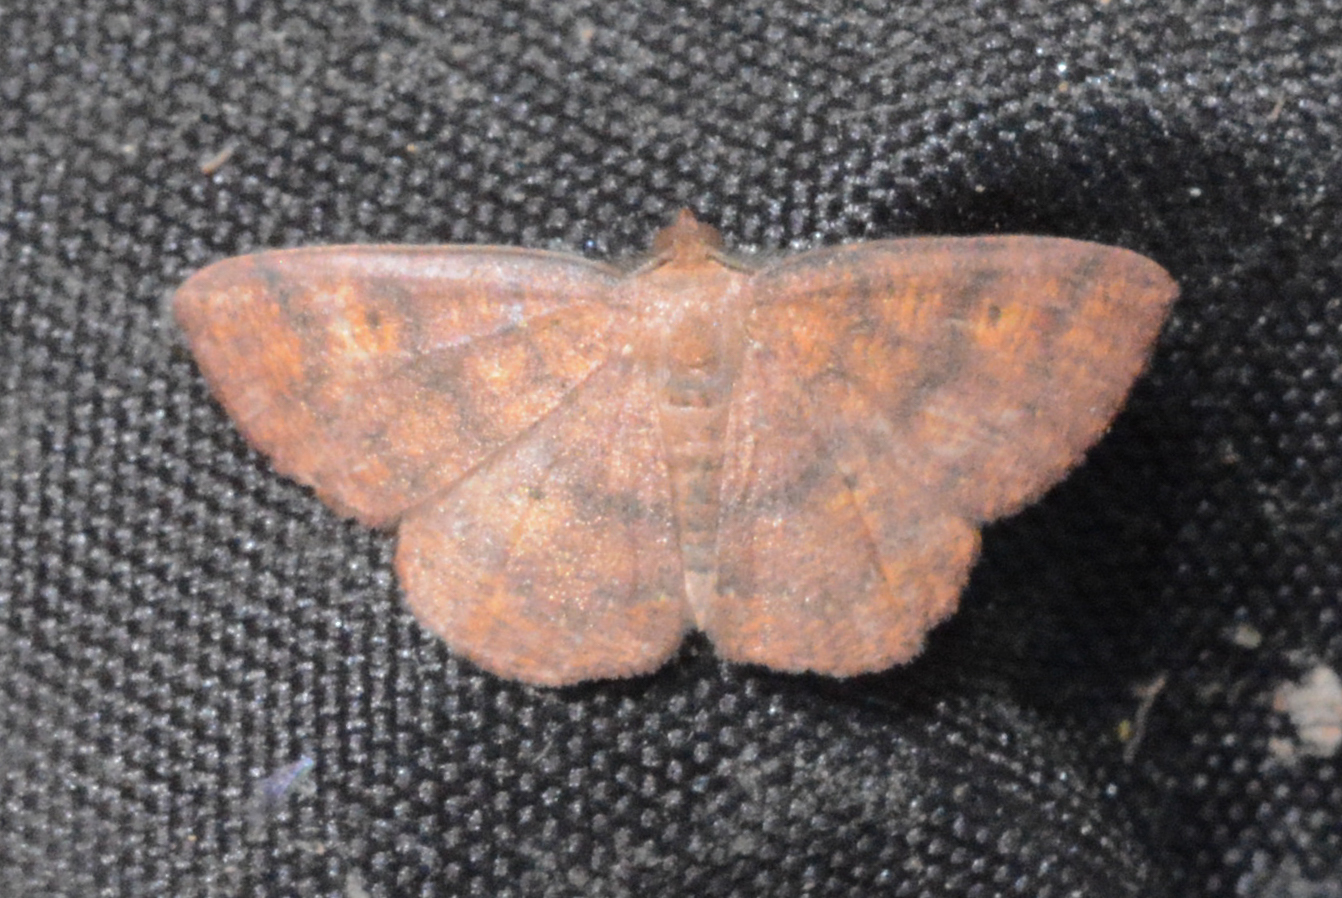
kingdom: Animalia
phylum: Arthropoda
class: Insecta
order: Lepidoptera
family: Geometridae
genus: Ilexia
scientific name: Ilexia intractata
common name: Black-dotted ruddy moth
